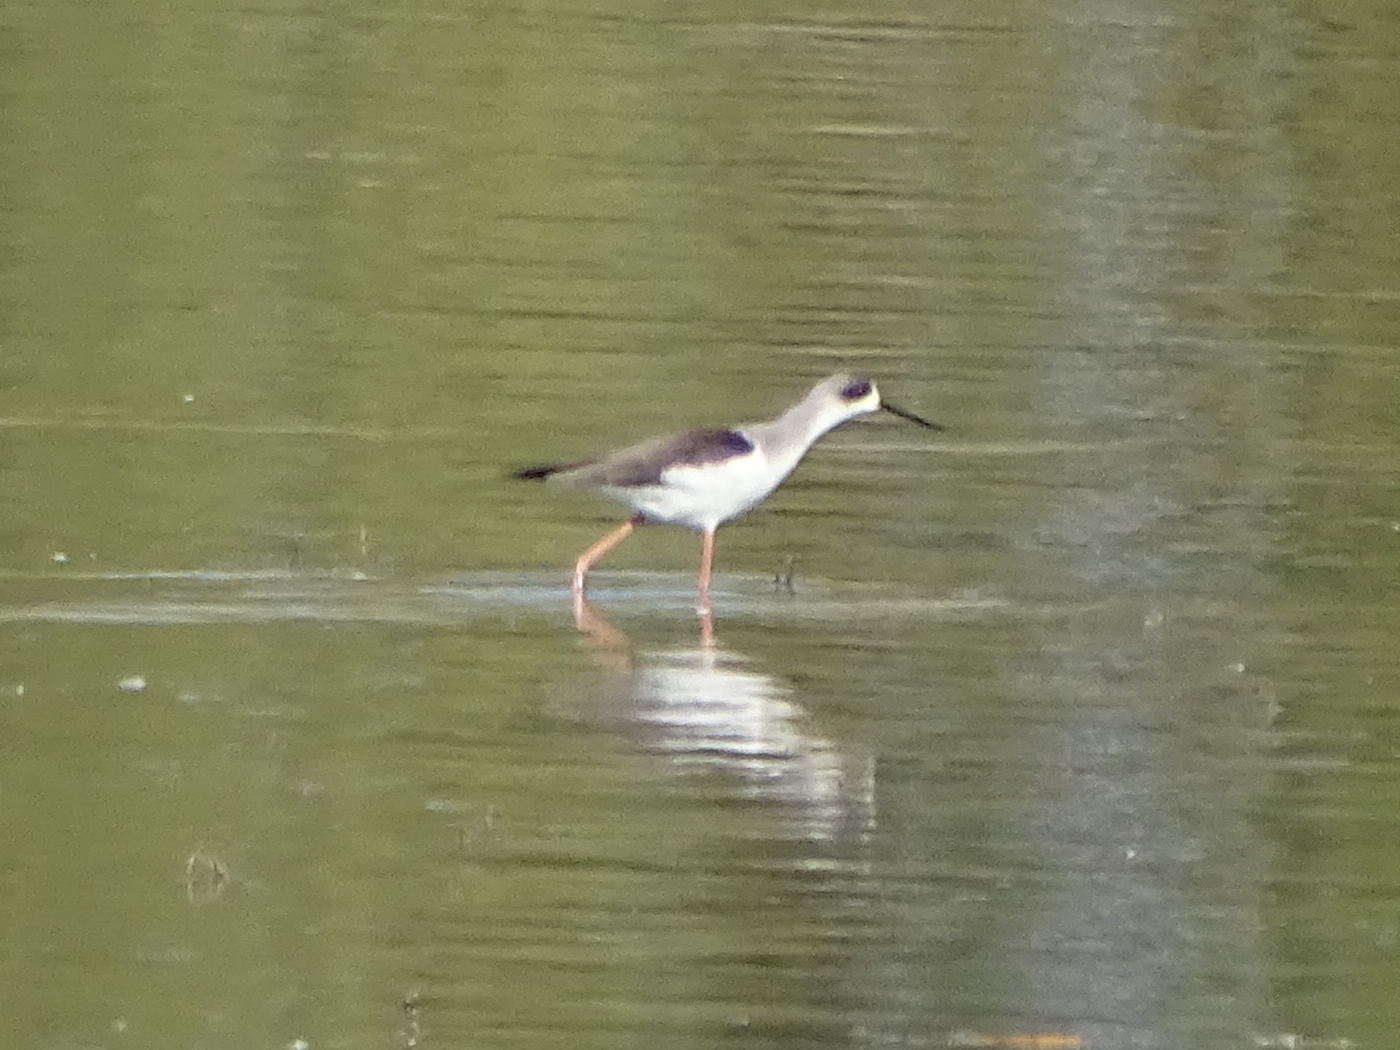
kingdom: Animalia
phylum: Chordata
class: Aves
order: Charadriiformes
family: Recurvirostridae
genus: Himantopus
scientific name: Himantopus himantopus
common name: Black-winged stilt
